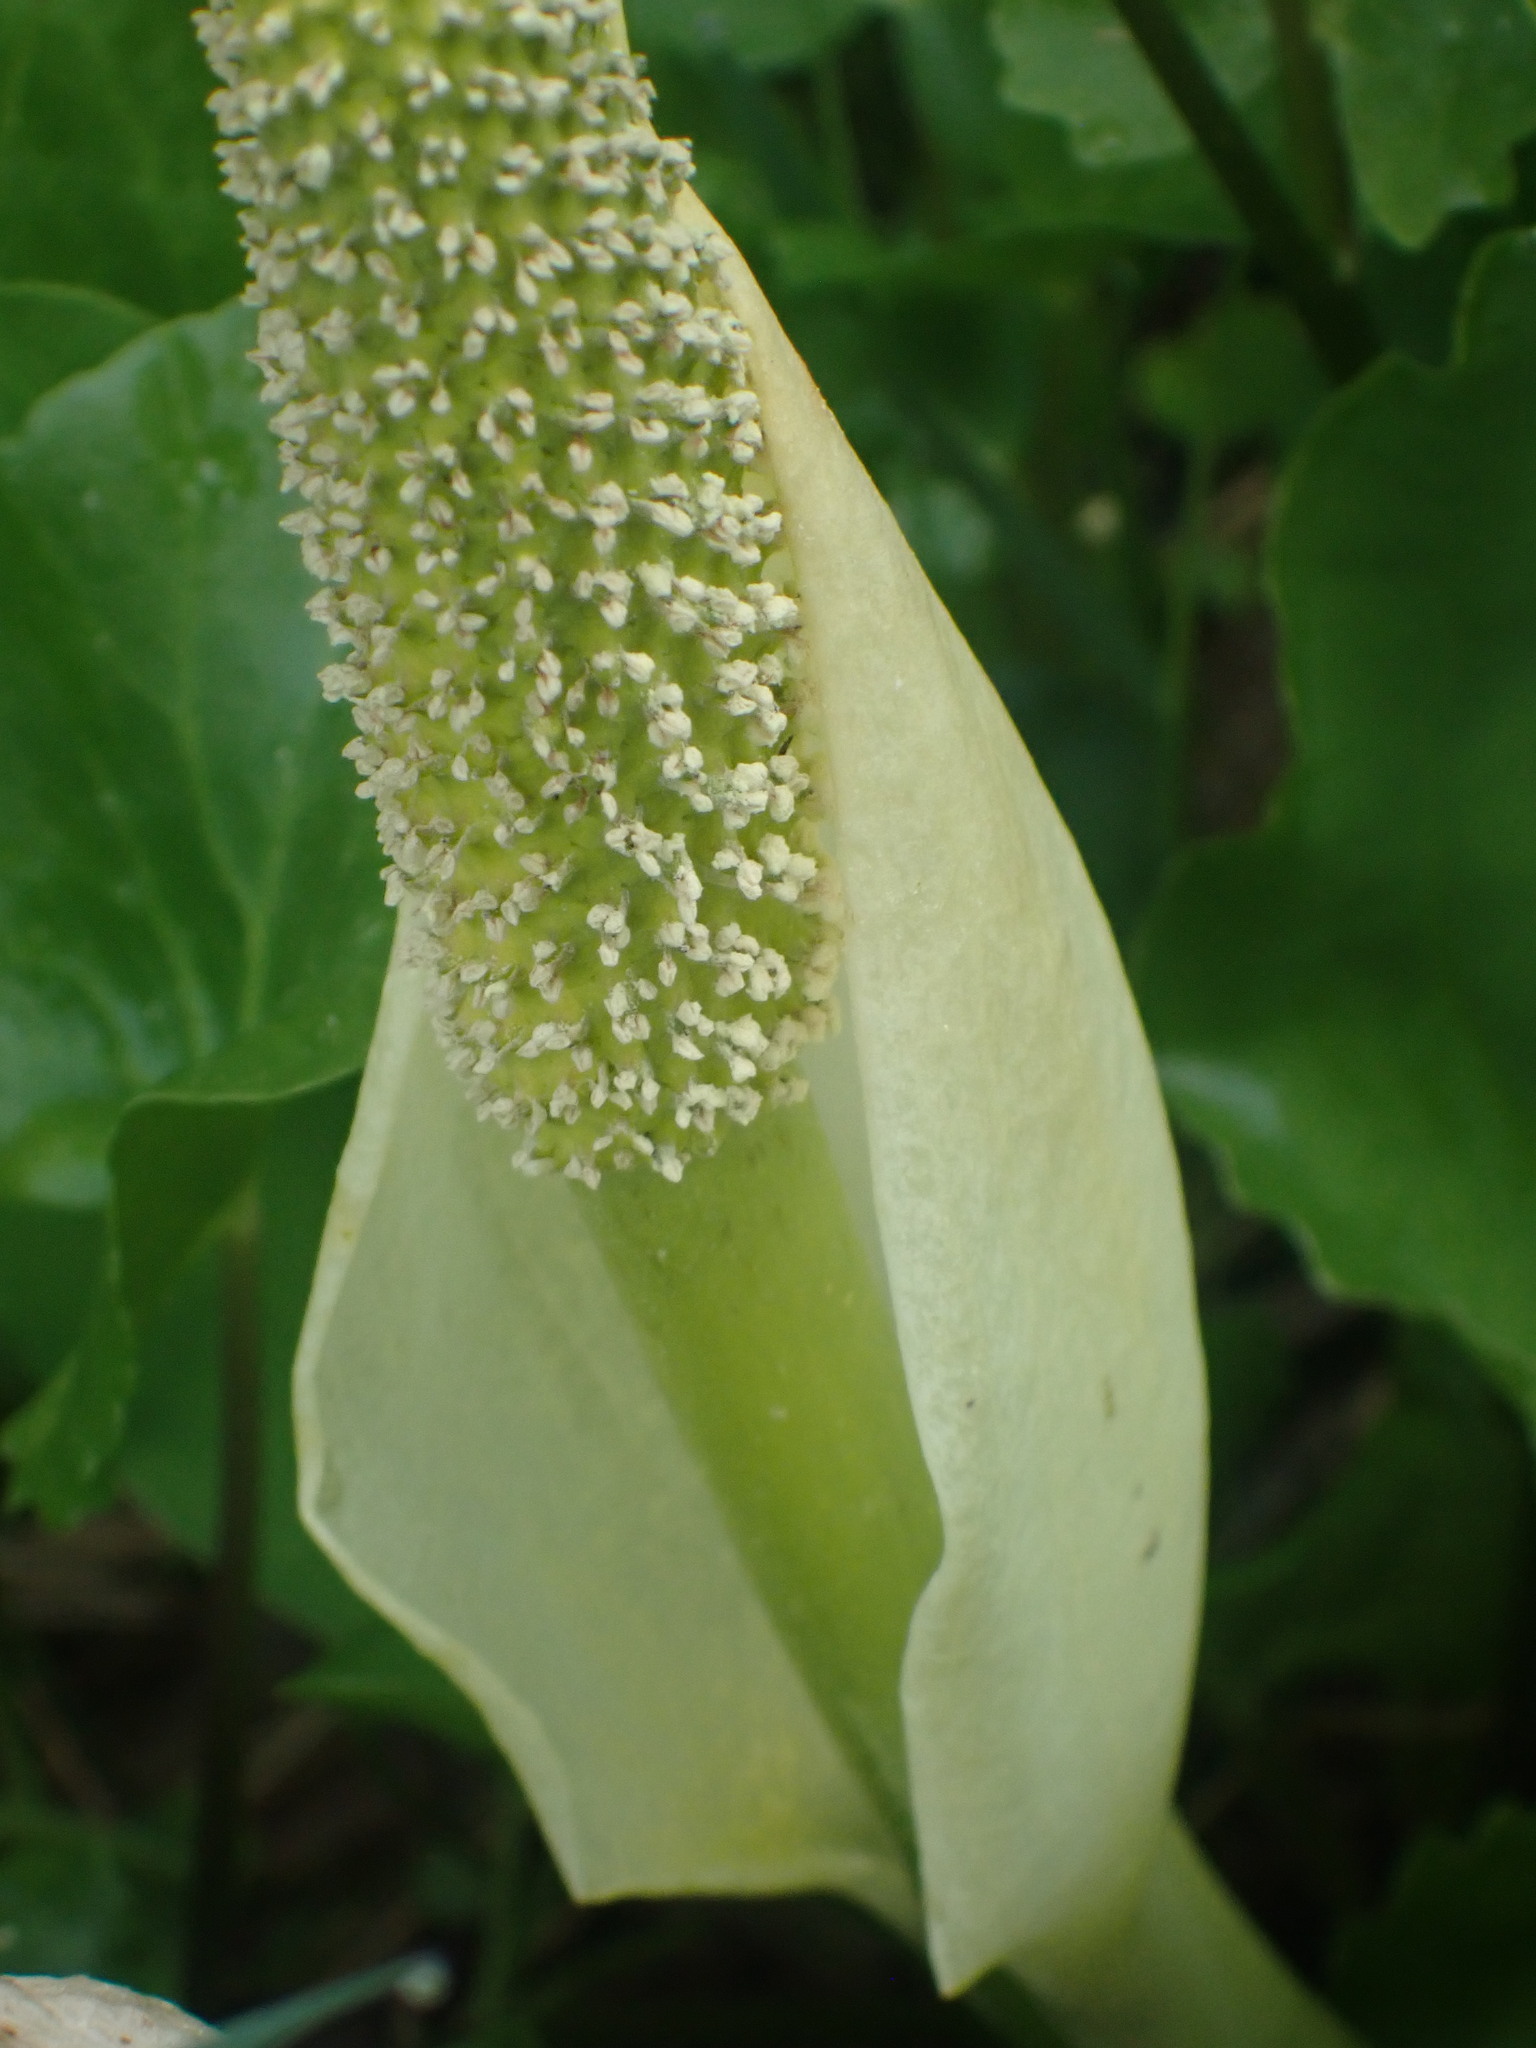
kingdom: Plantae
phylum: Tracheophyta
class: Liliopsida
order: Alismatales
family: Araceae
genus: Lysichiton
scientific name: Lysichiton americanus
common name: American skunk cabbage
